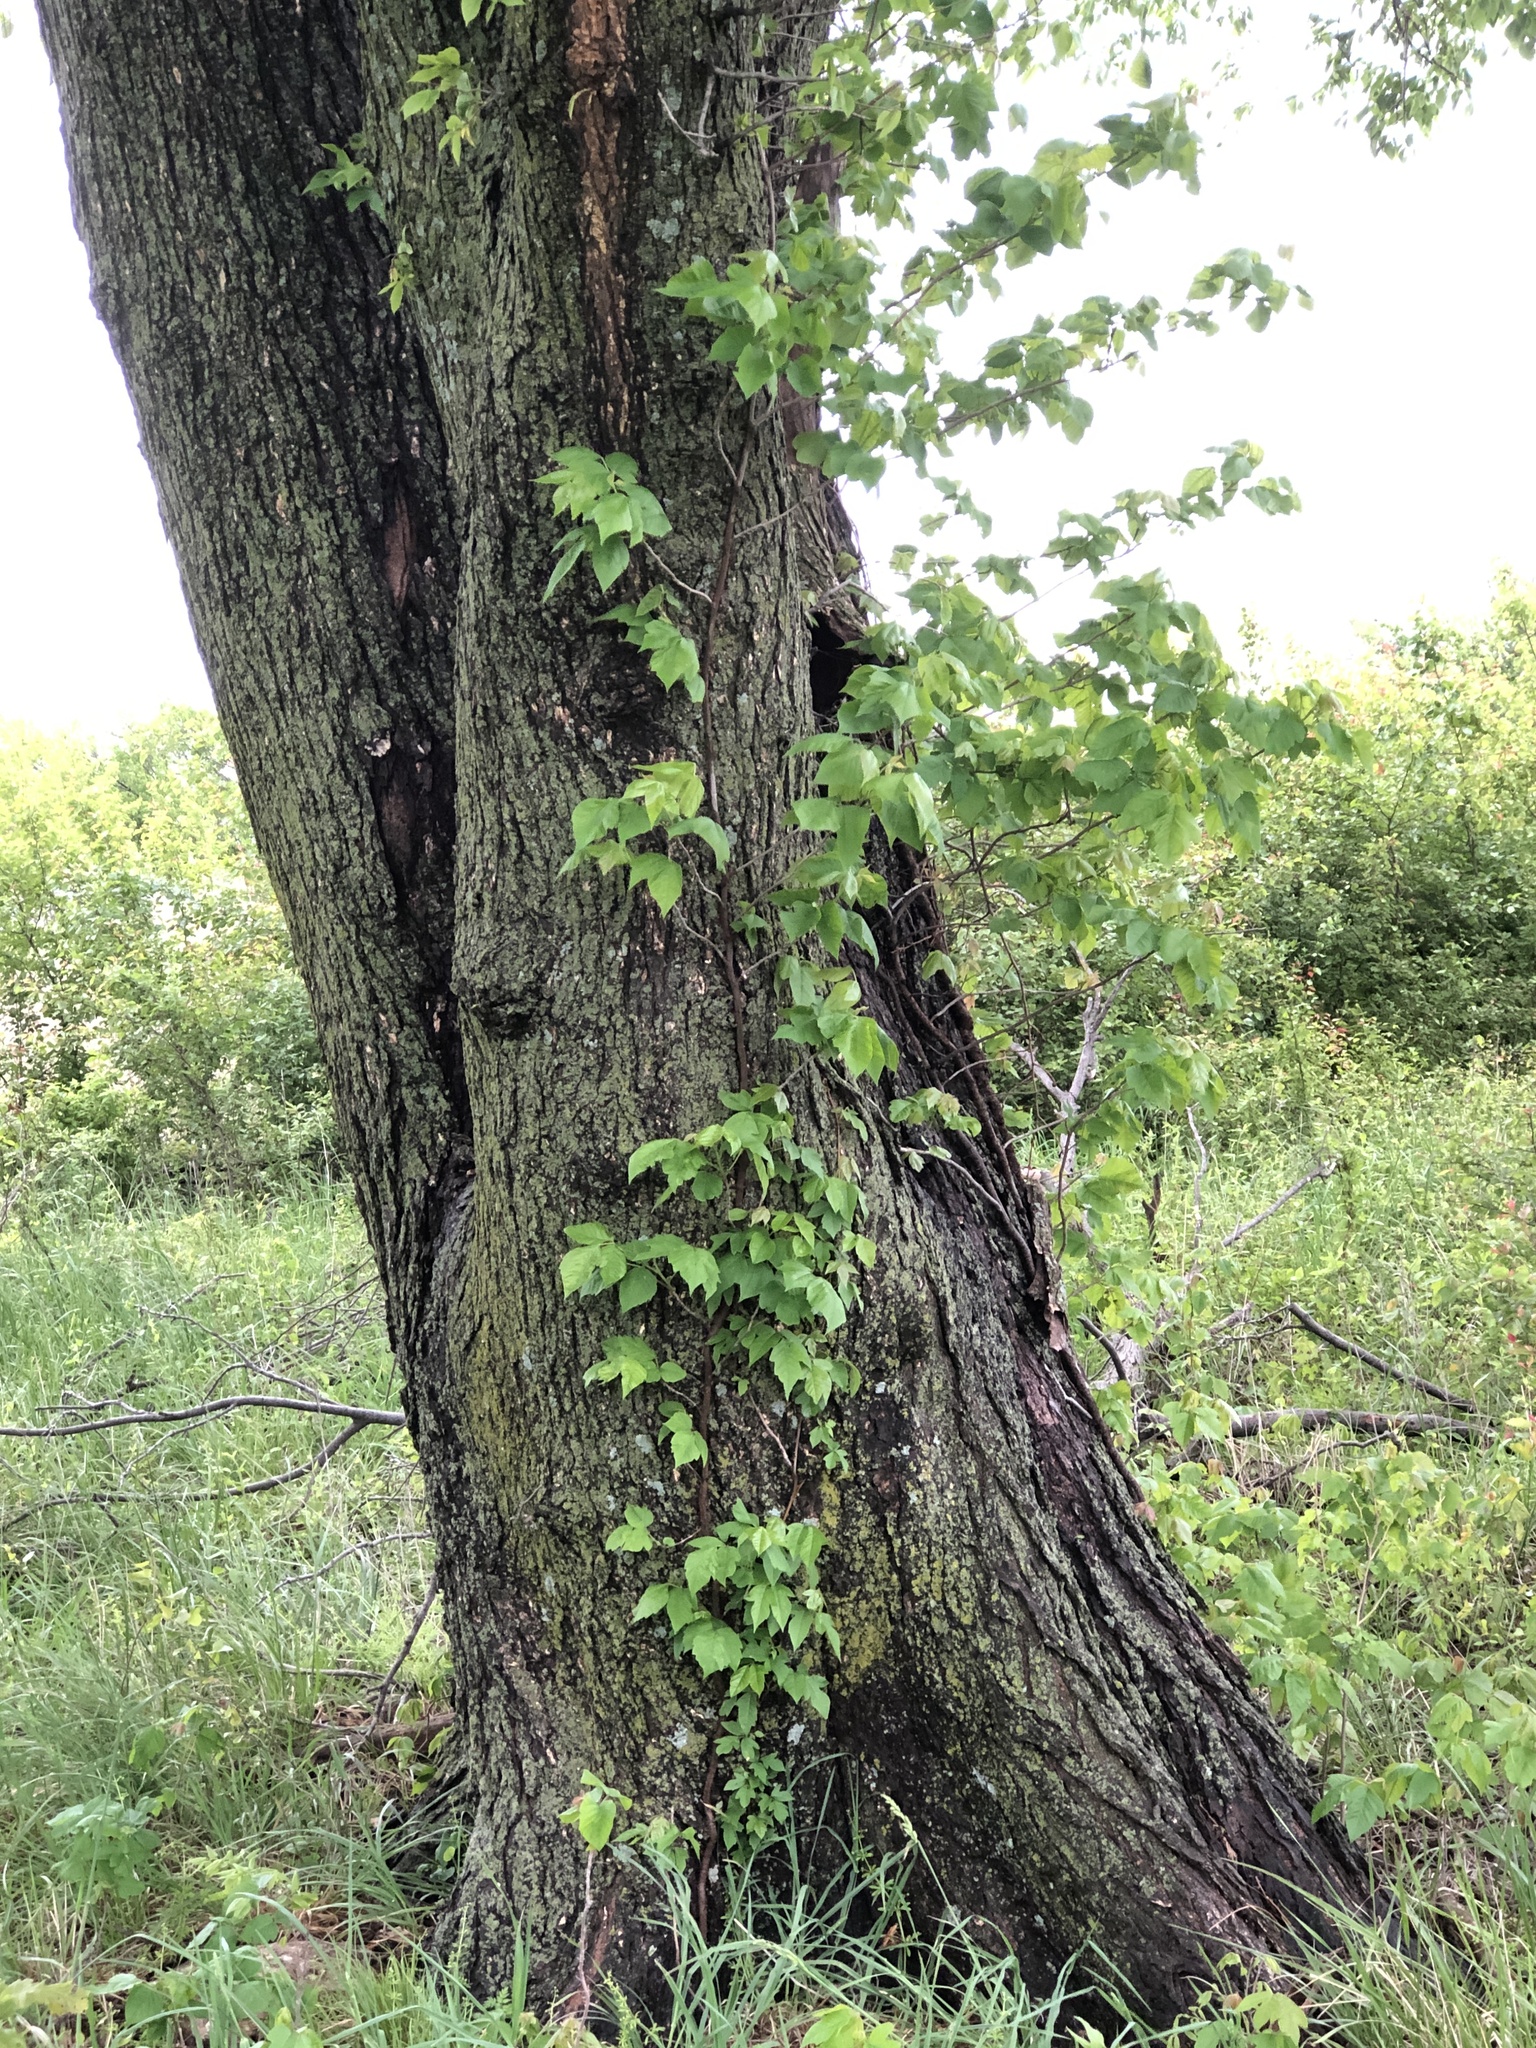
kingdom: Plantae
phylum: Tracheophyta
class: Magnoliopsida
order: Sapindales
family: Anacardiaceae
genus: Toxicodendron
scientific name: Toxicodendron radicans
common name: Poison ivy
